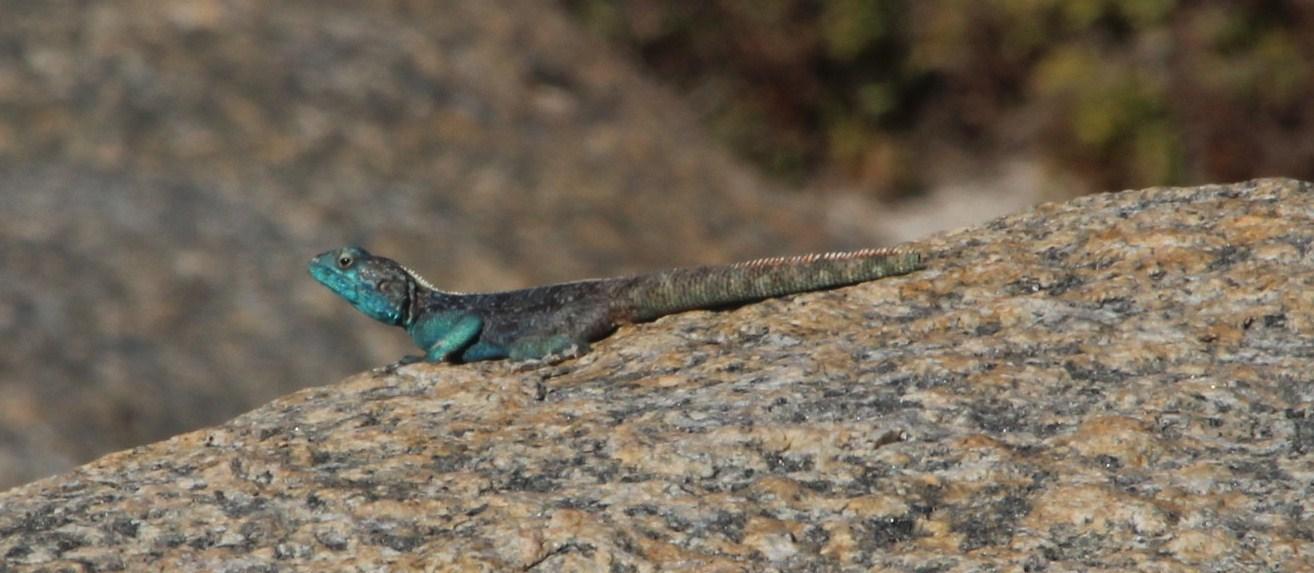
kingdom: Animalia
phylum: Chordata
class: Squamata
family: Agamidae
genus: Agama
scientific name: Agama atra
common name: Southern african rock agama
